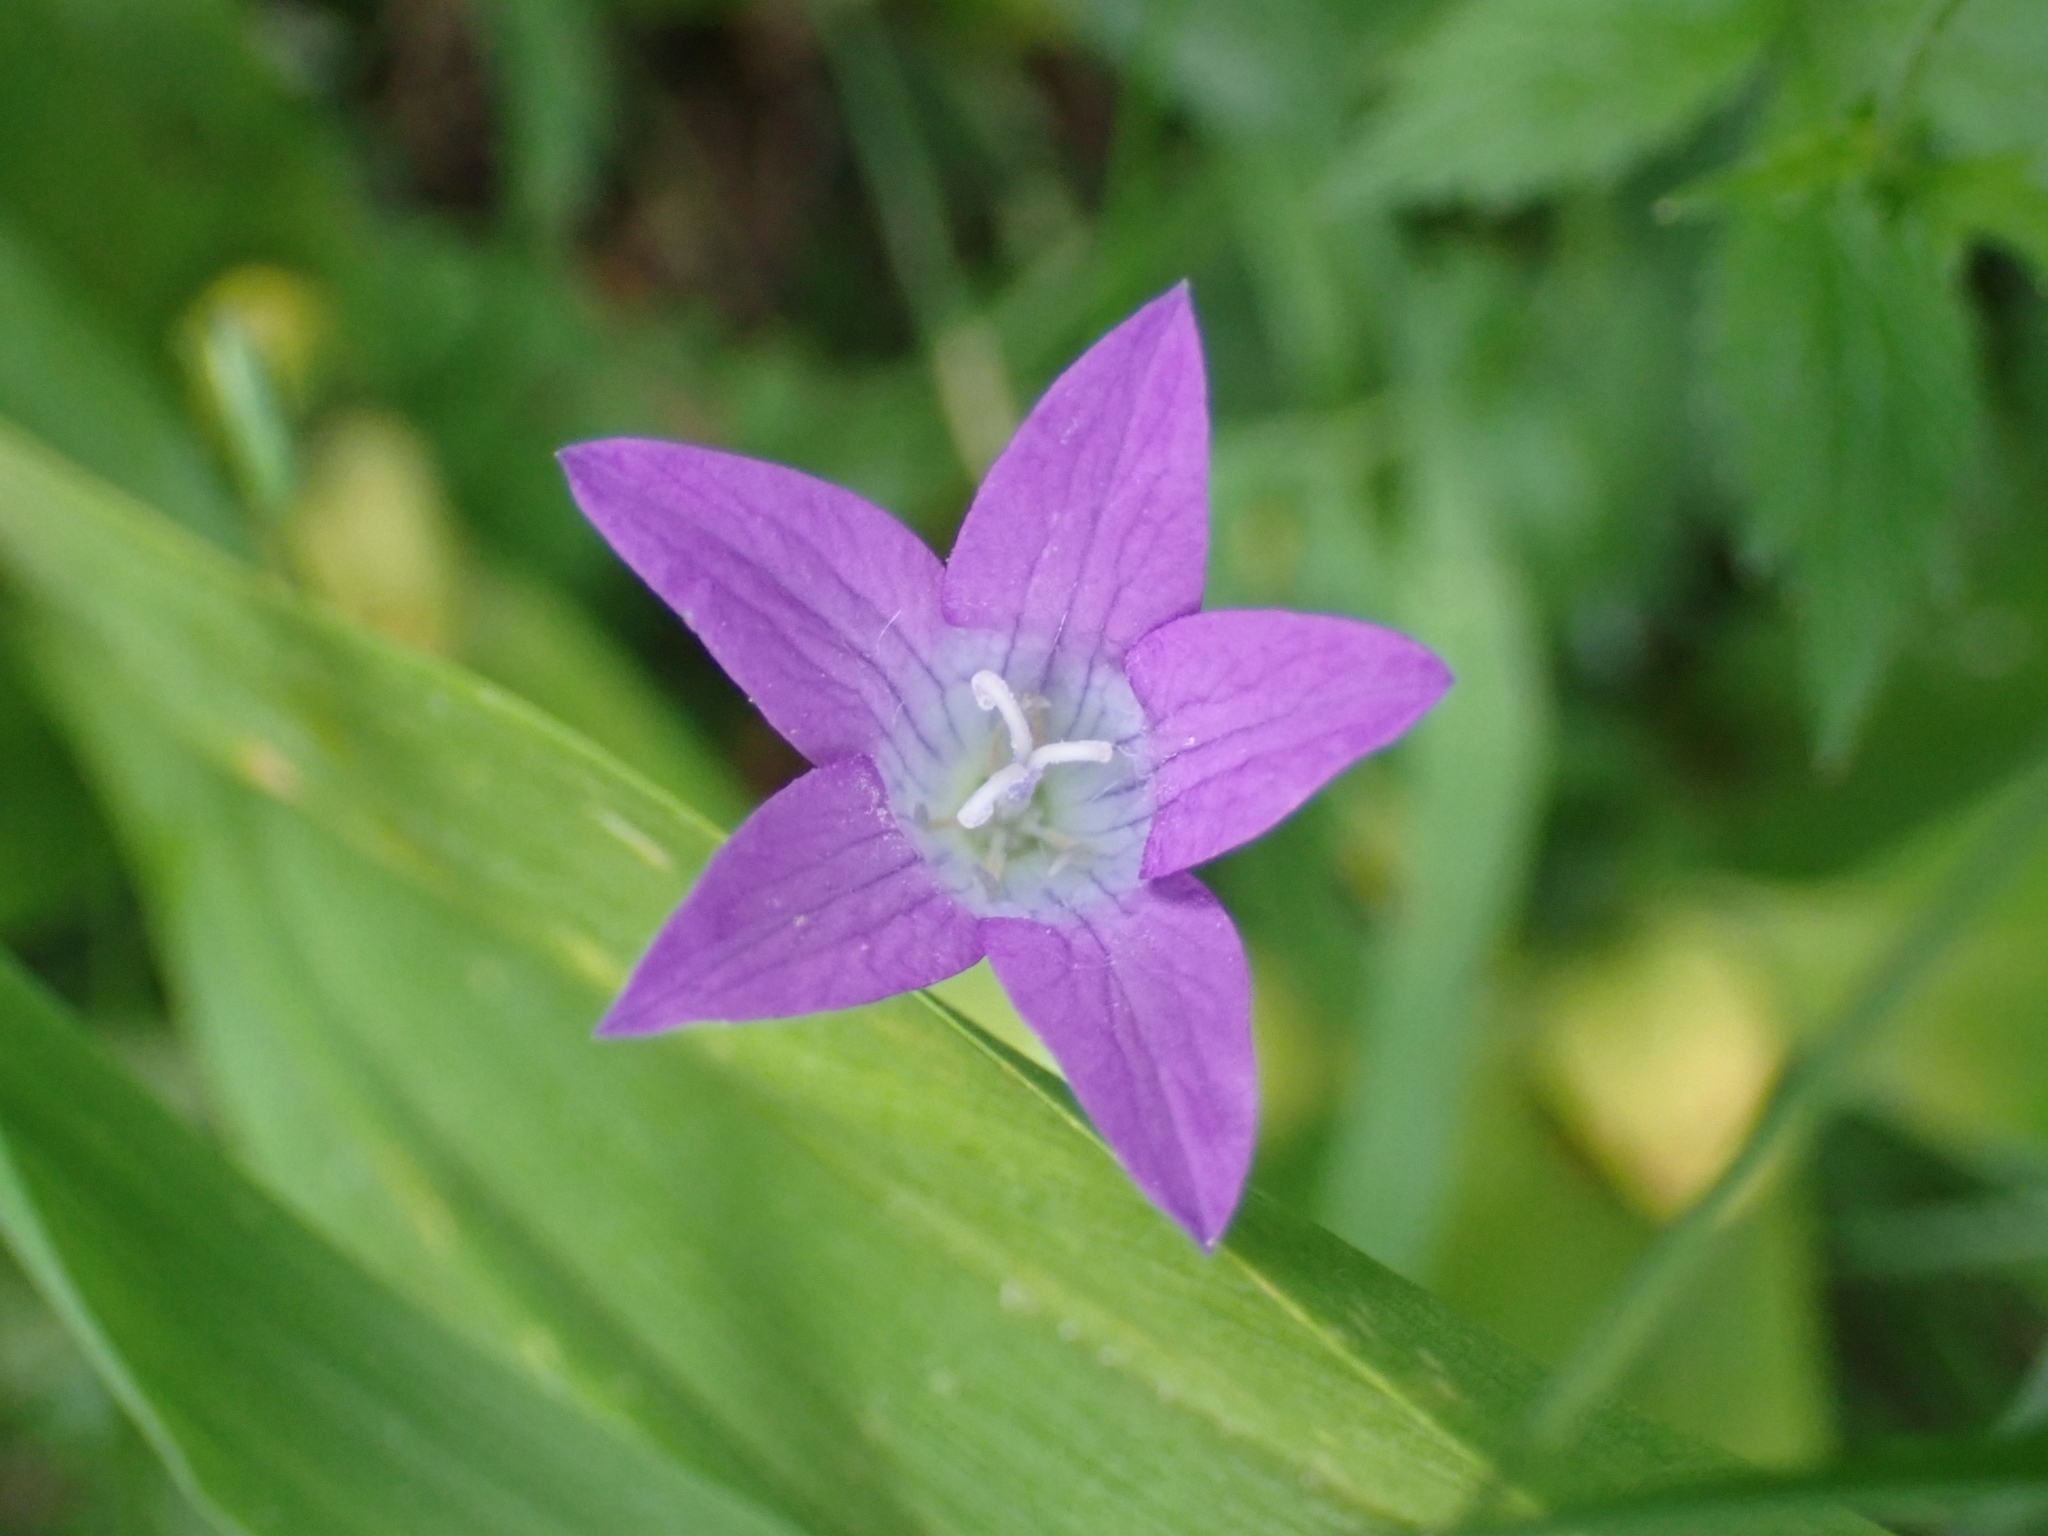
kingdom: Plantae
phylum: Tracheophyta
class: Magnoliopsida
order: Asterales
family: Campanulaceae
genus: Campanula
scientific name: Campanula patula
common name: Spreading bellflower
